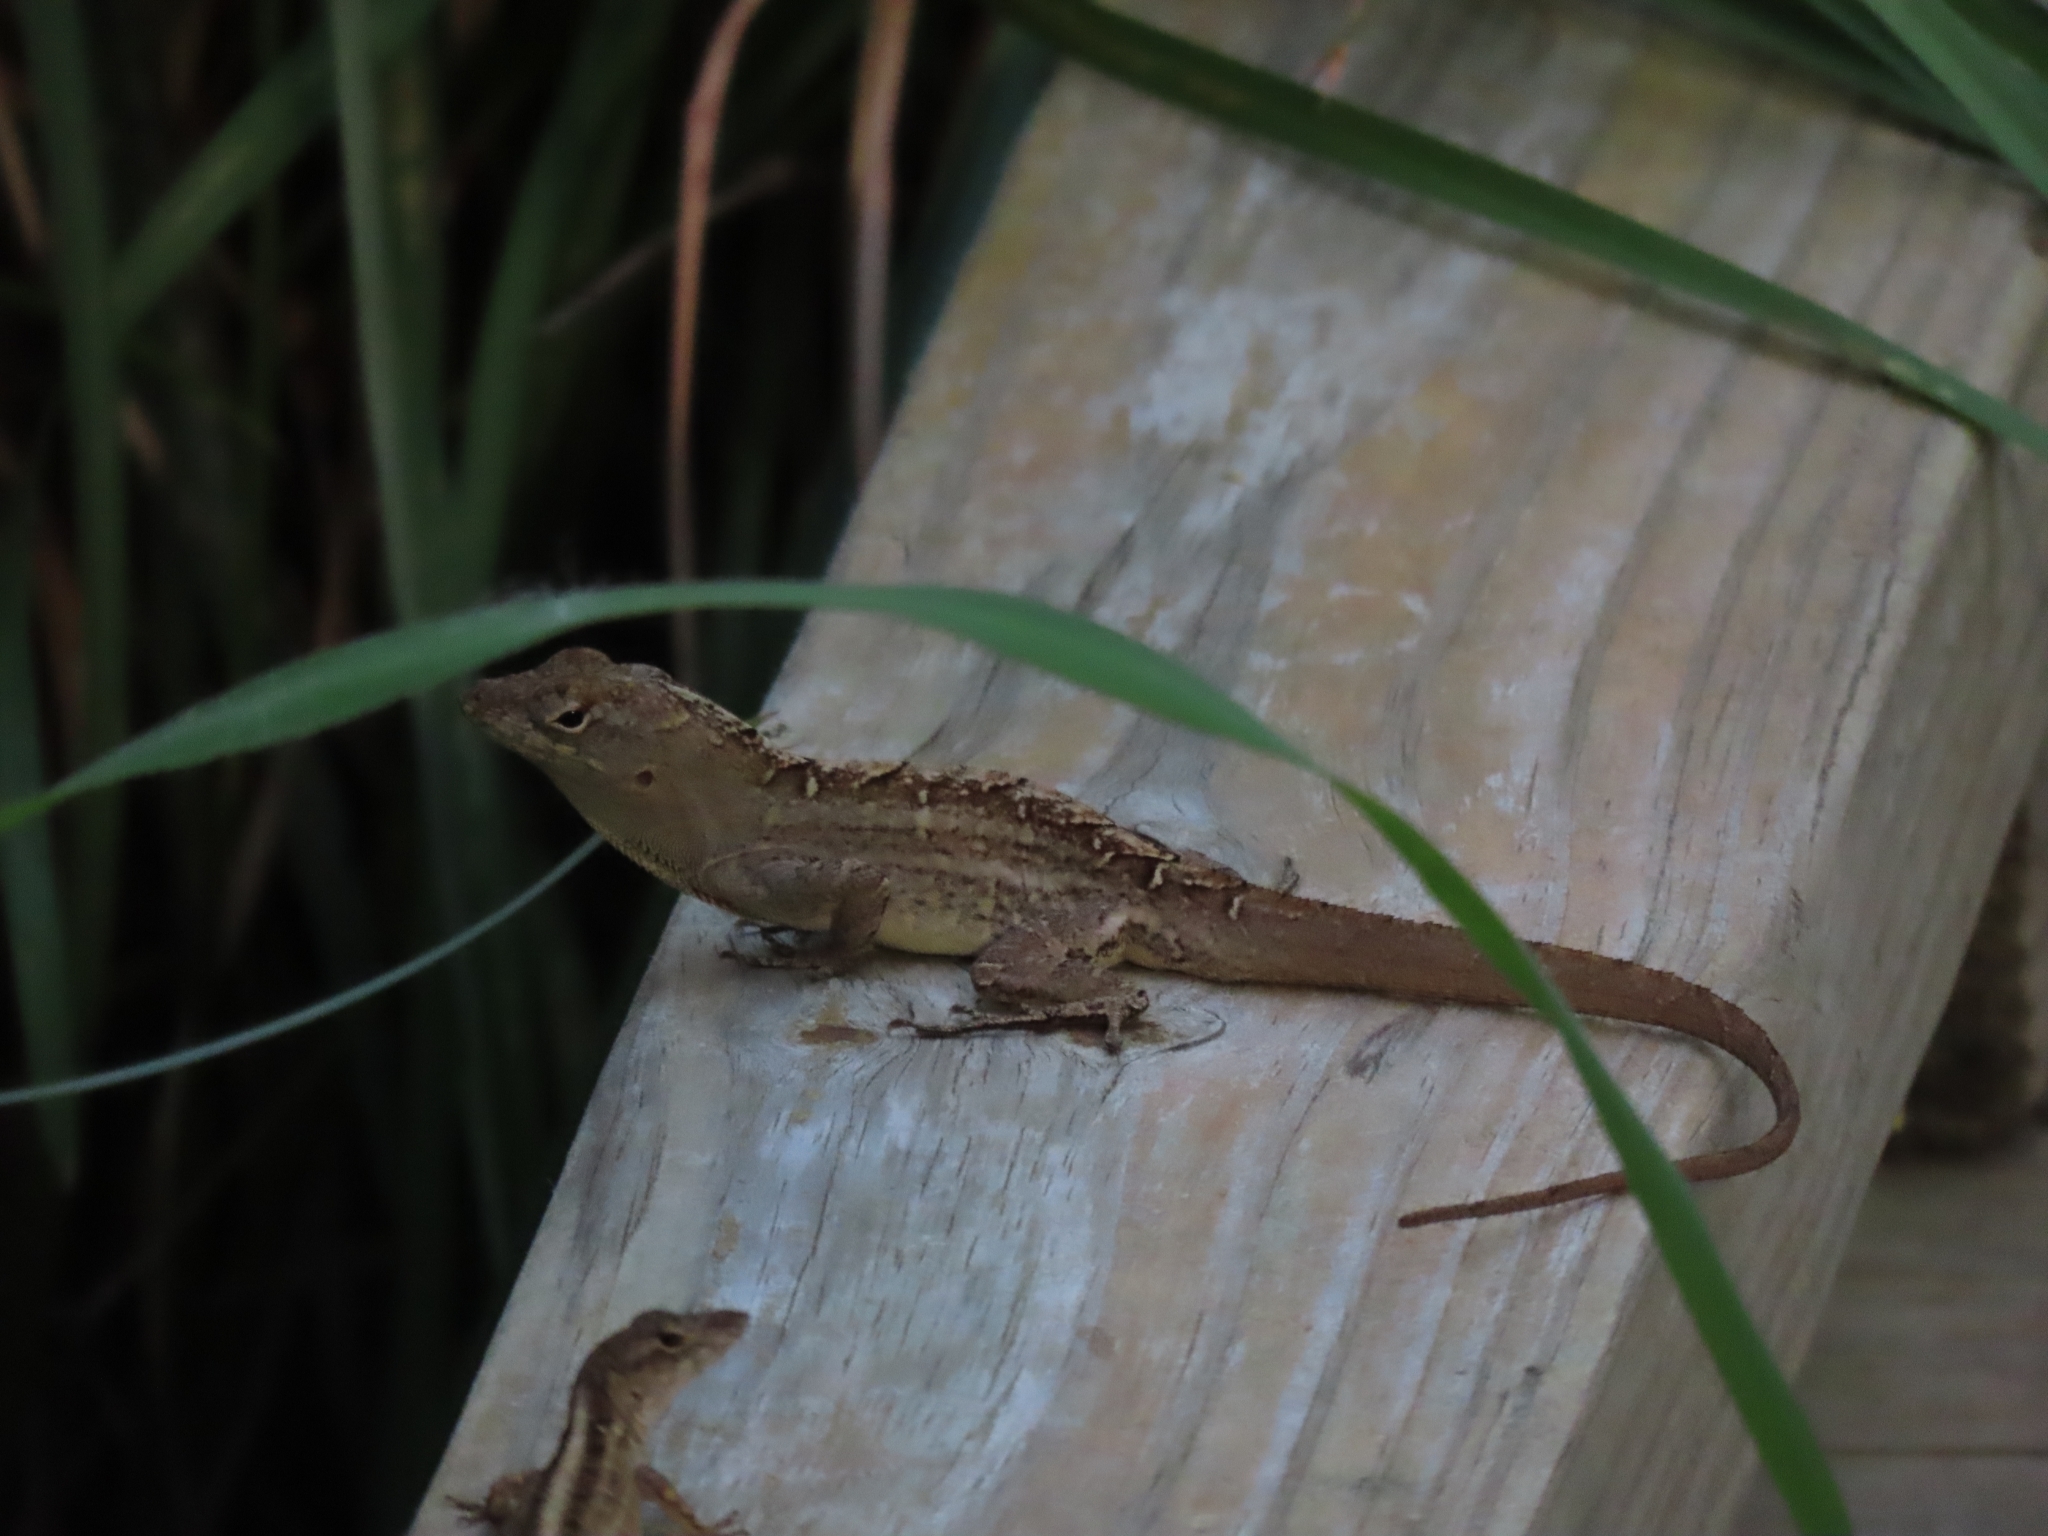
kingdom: Animalia
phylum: Chordata
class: Squamata
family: Dactyloidae
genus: Anolis
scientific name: Anolis sagrei
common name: Brown anole
